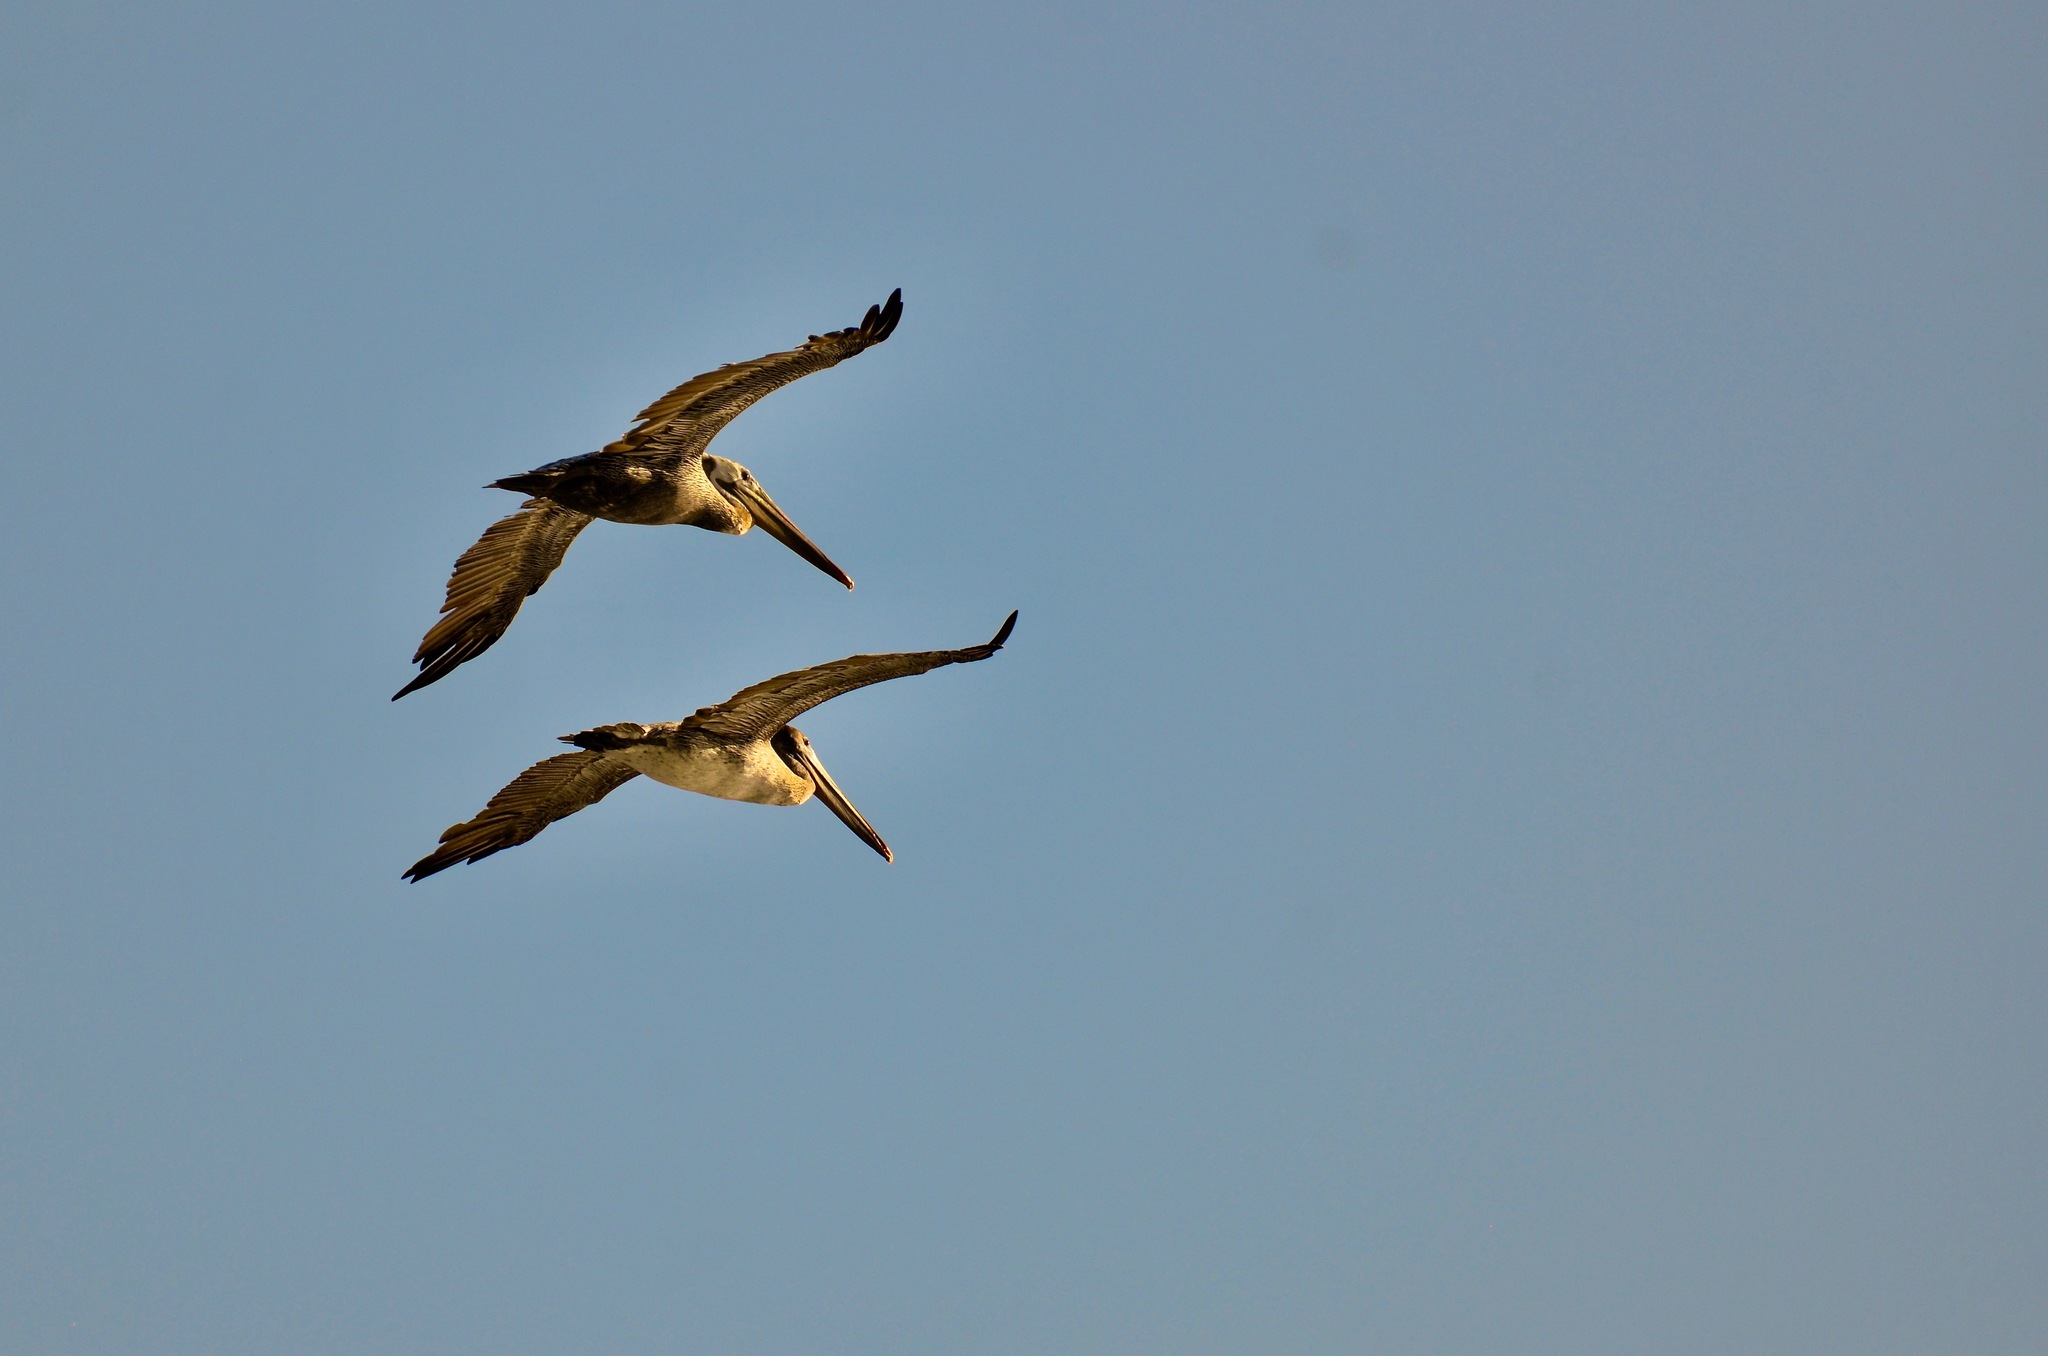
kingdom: Animalia
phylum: Chordata
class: Aves
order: Pelecaniformes
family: Pelecanidae
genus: Pelecanus
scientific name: Pelecanus occidentalis
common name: Brown pelican
